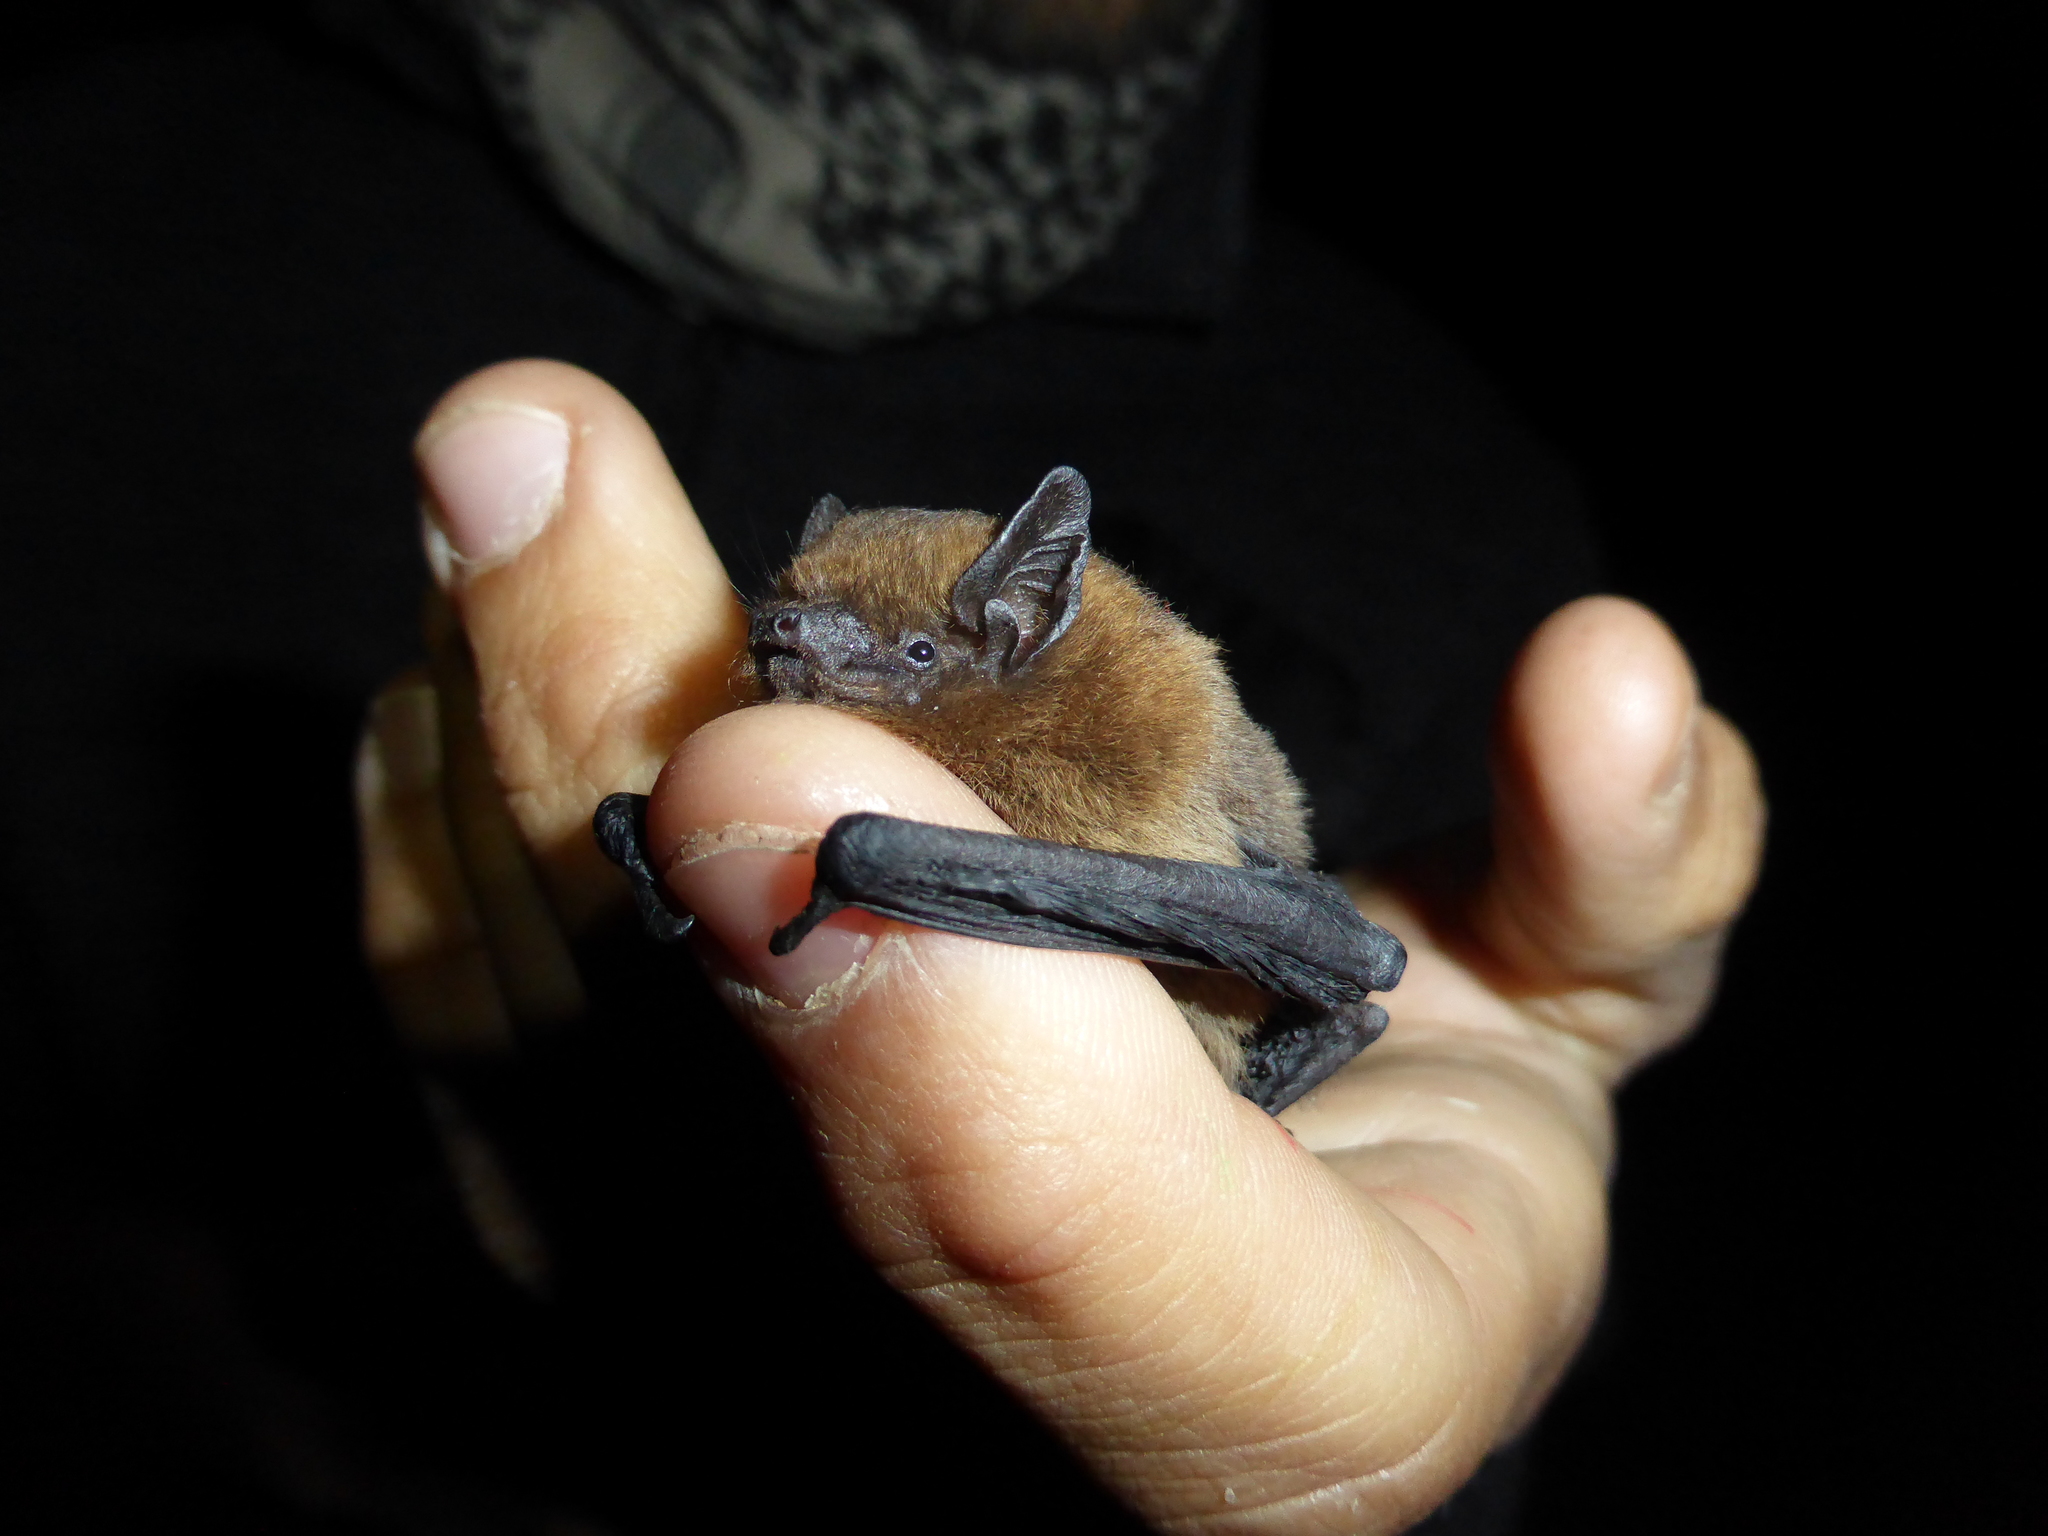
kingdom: Animalia
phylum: Chordata
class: Mammalia
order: Chiroptera
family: Vespertilionidae
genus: Pipistrellus
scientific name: Pipistrellus pipistrellus
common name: Common pipistrelle
